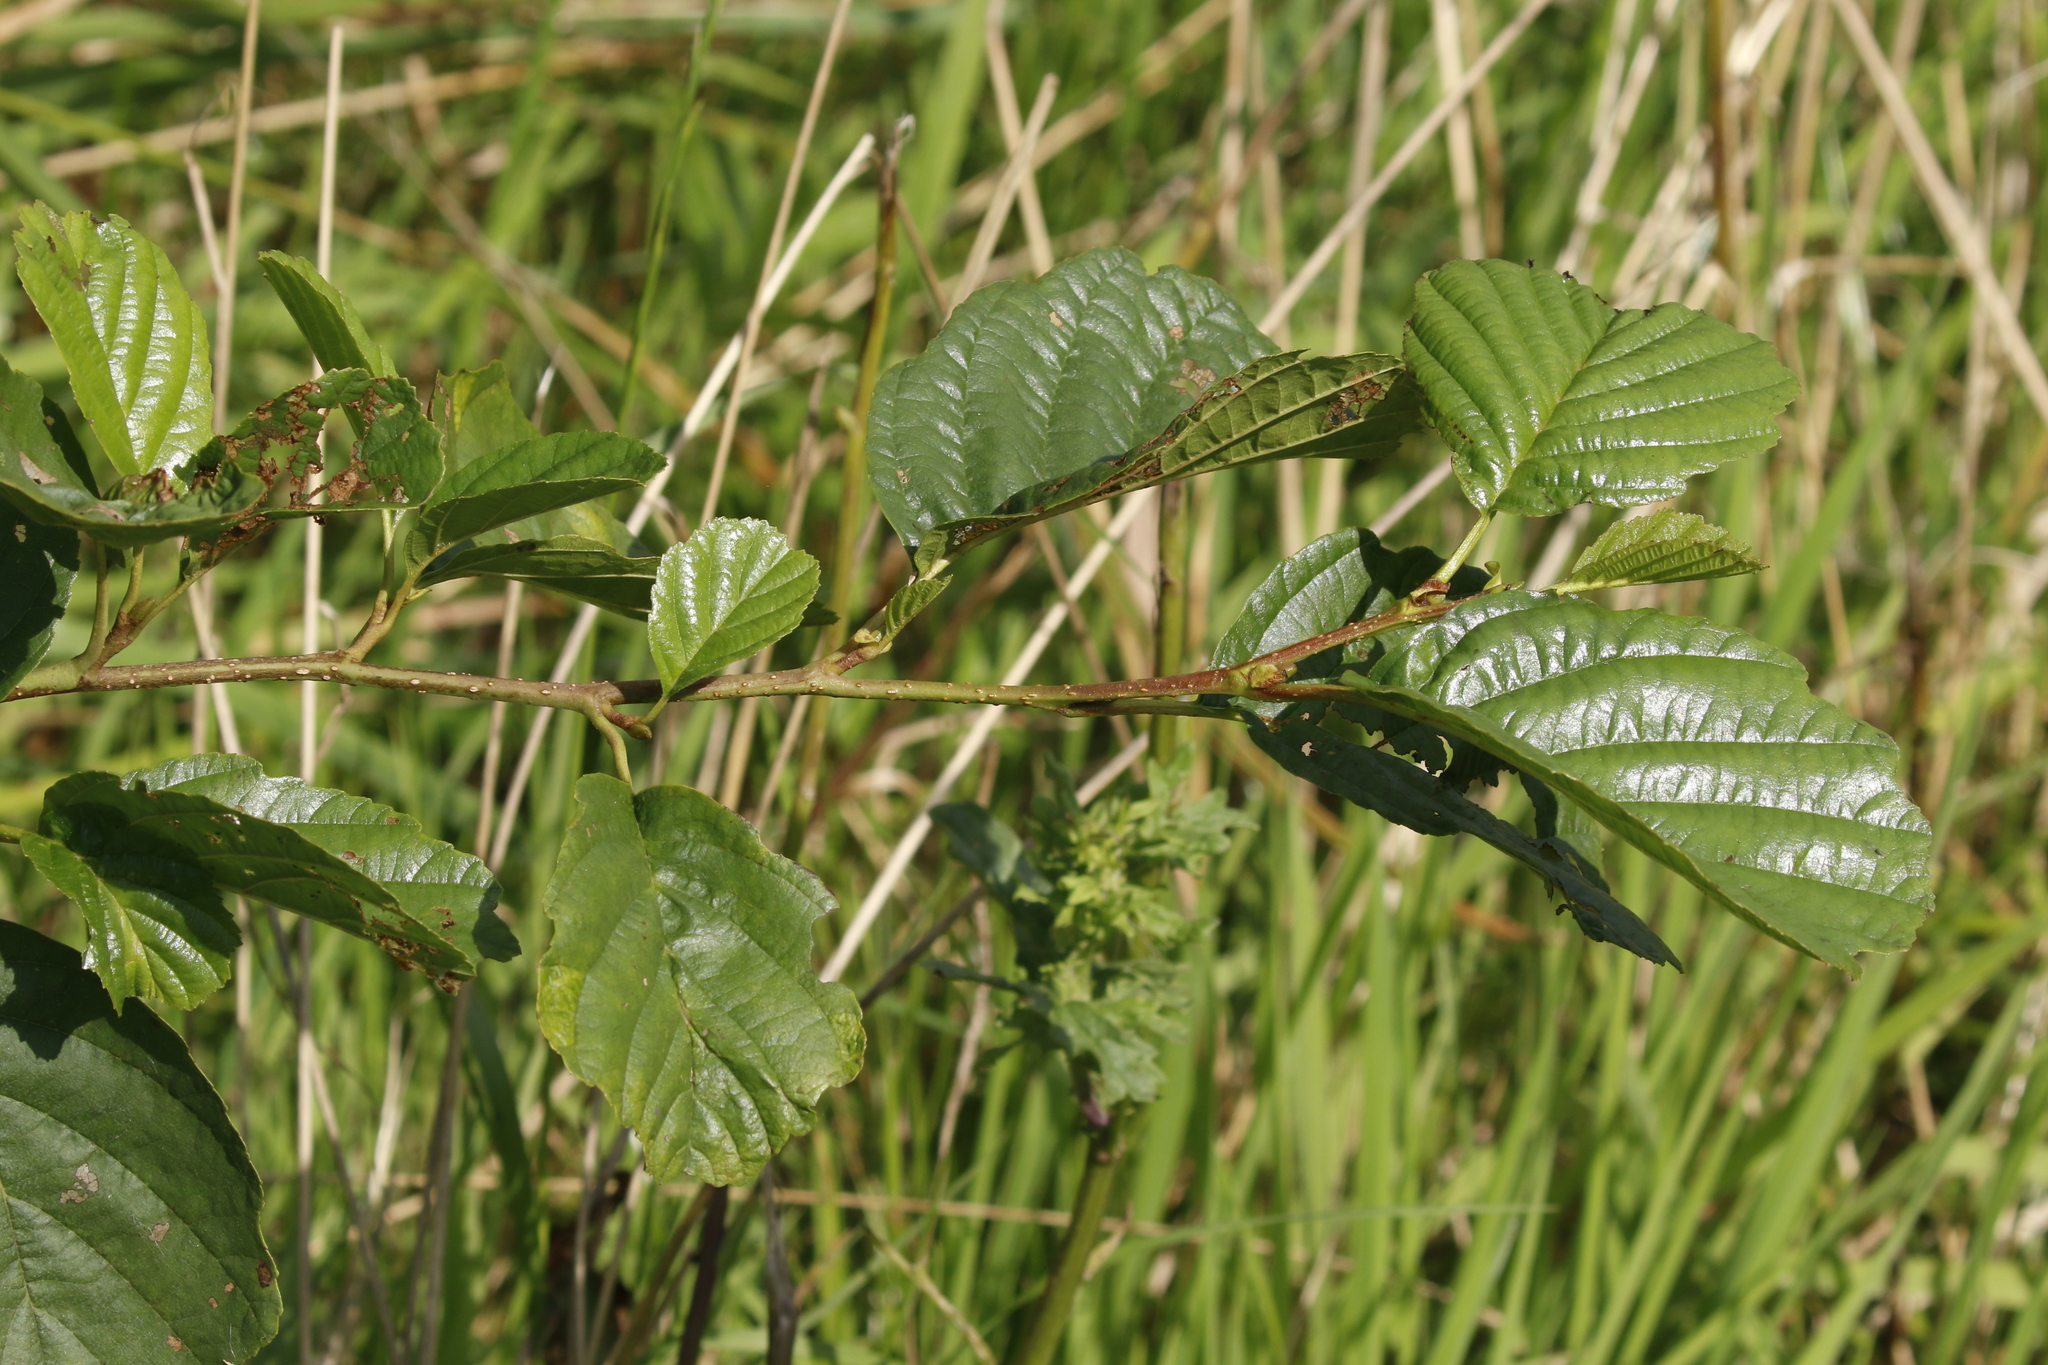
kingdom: Plantae
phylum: Tracheophyta
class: Magnoliopsida
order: Fagales
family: Betulaceae
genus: Alnus
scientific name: Alnus glutinosa
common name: Black alder
